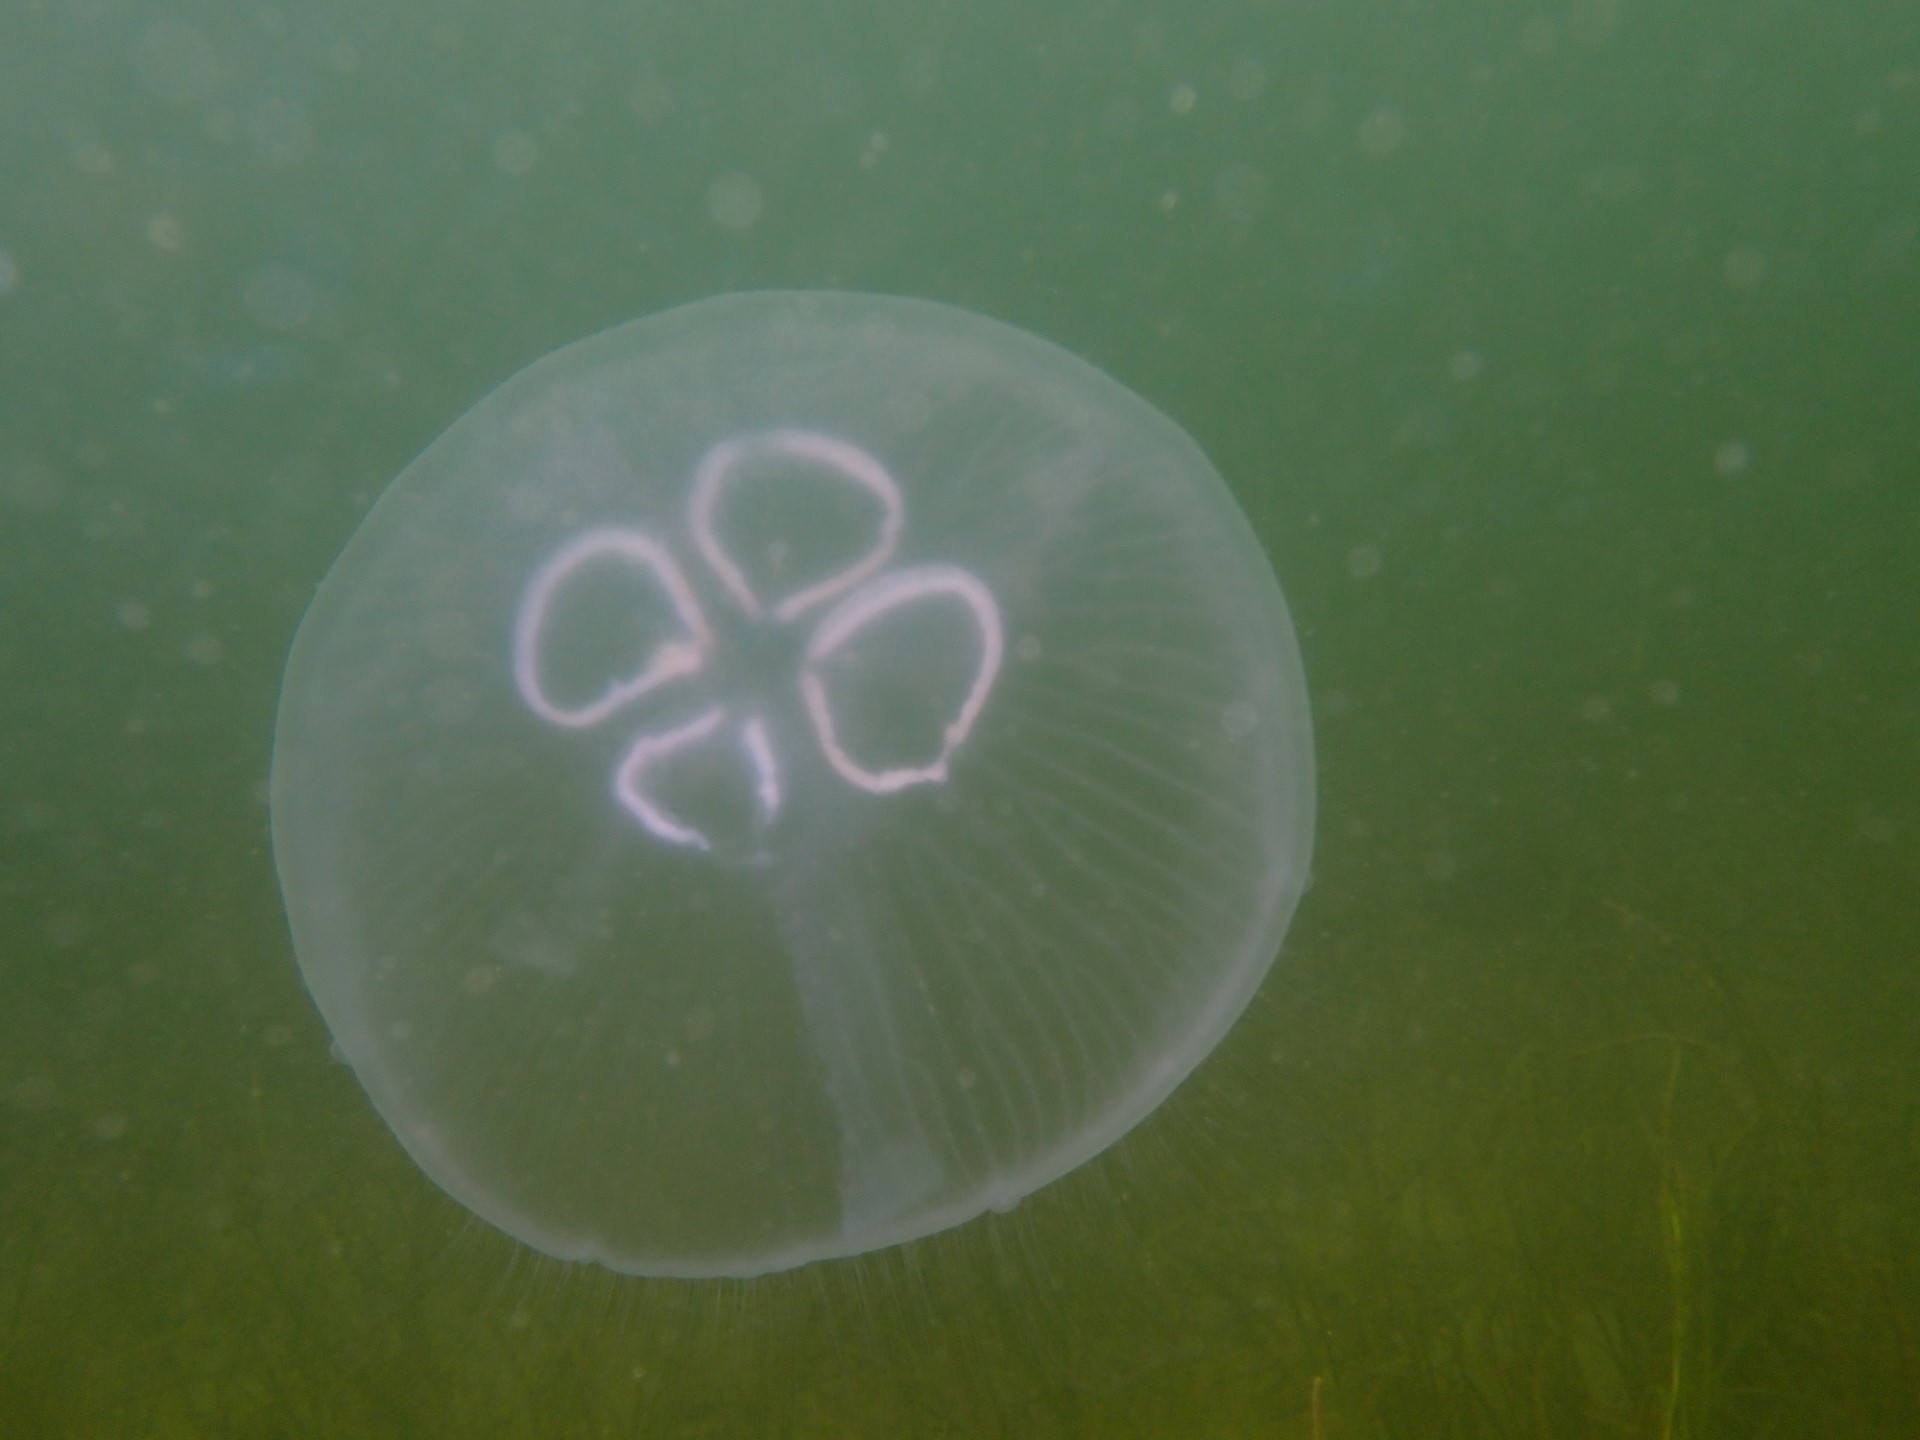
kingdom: Animalia
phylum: Cnidaria
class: Scyphozoa
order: Semaeostomeae
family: Ulmaridae
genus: Aurelia
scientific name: Aurelia aurita
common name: Moon jellyfish
